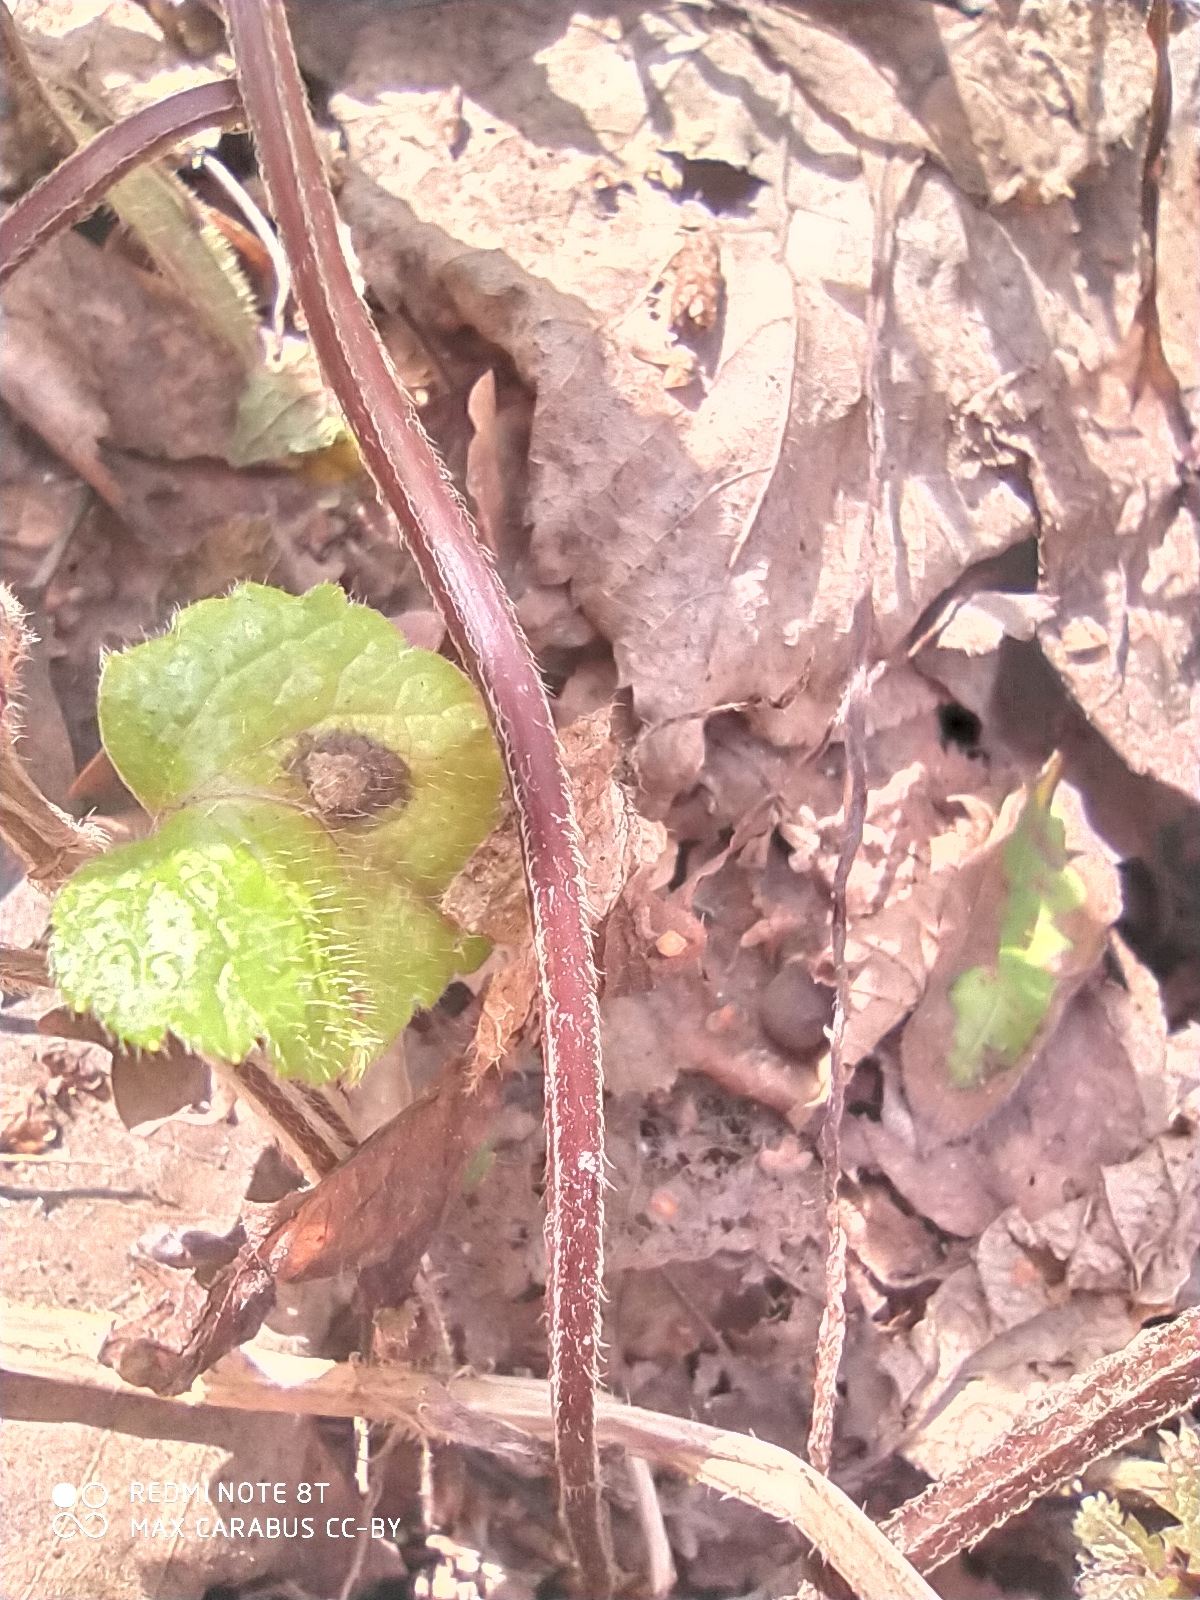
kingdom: Plantae
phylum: Tracheophyta
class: Magnoliopsida
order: Lamiales
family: Lamiaceae
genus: Lamium
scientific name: Lamium galeobdolon
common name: Yellow archangel
